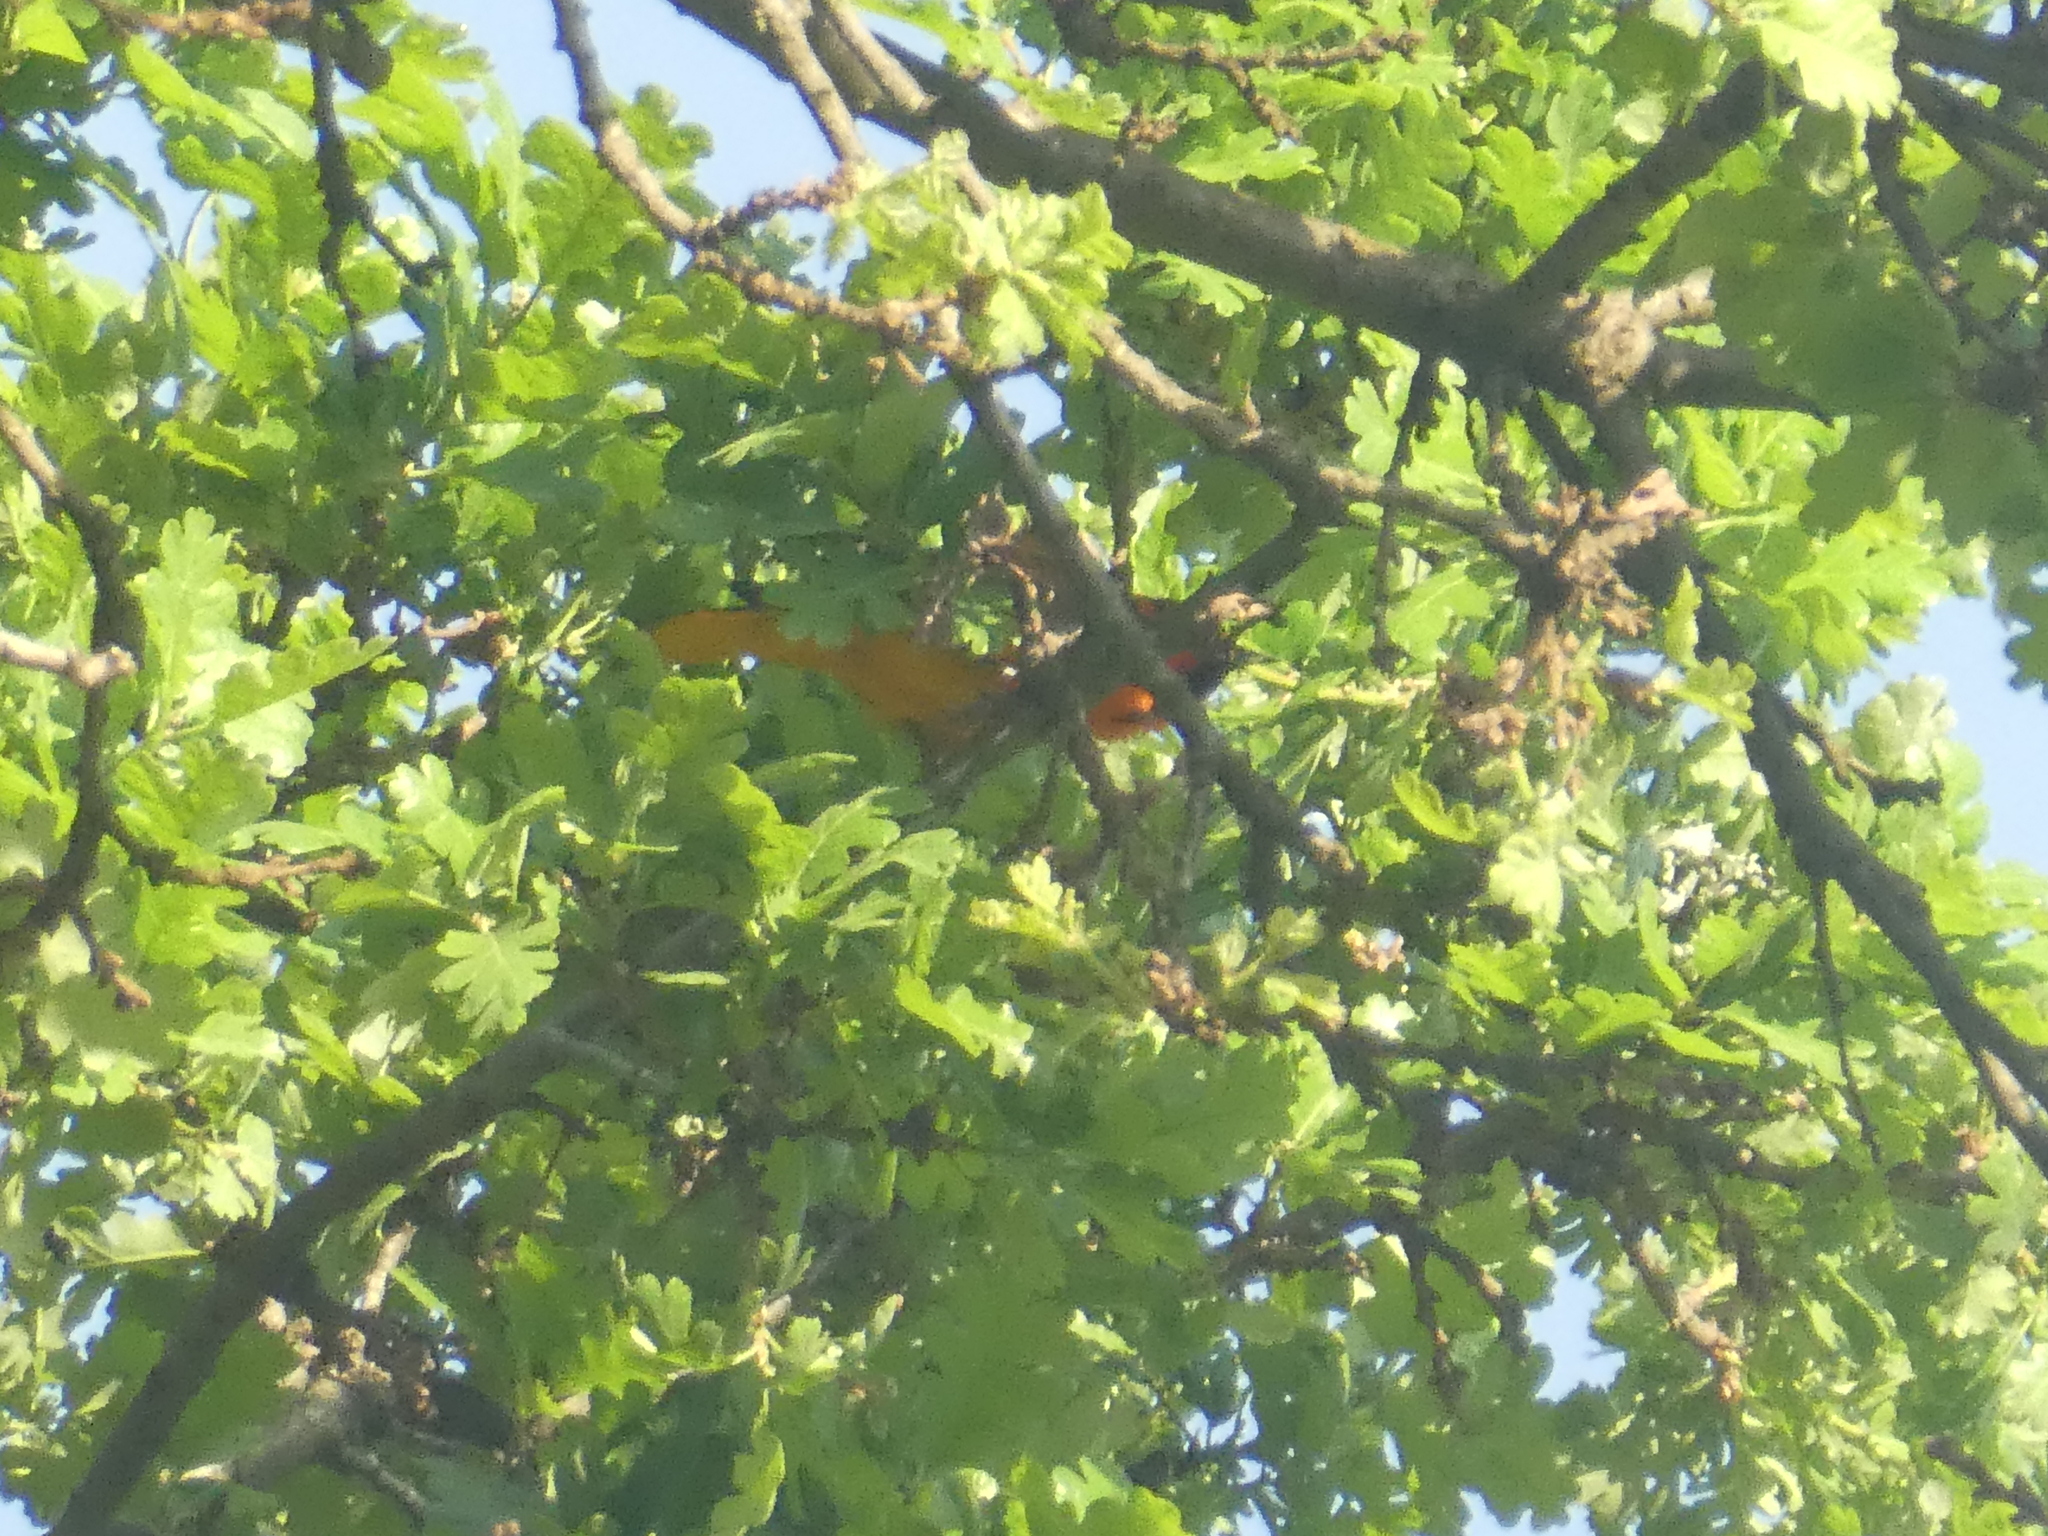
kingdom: Animalia
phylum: Chordata
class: Aves
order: Passeriformes
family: Icteridae
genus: Icterus
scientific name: Icterus bullockii
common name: Bullock's oriole
